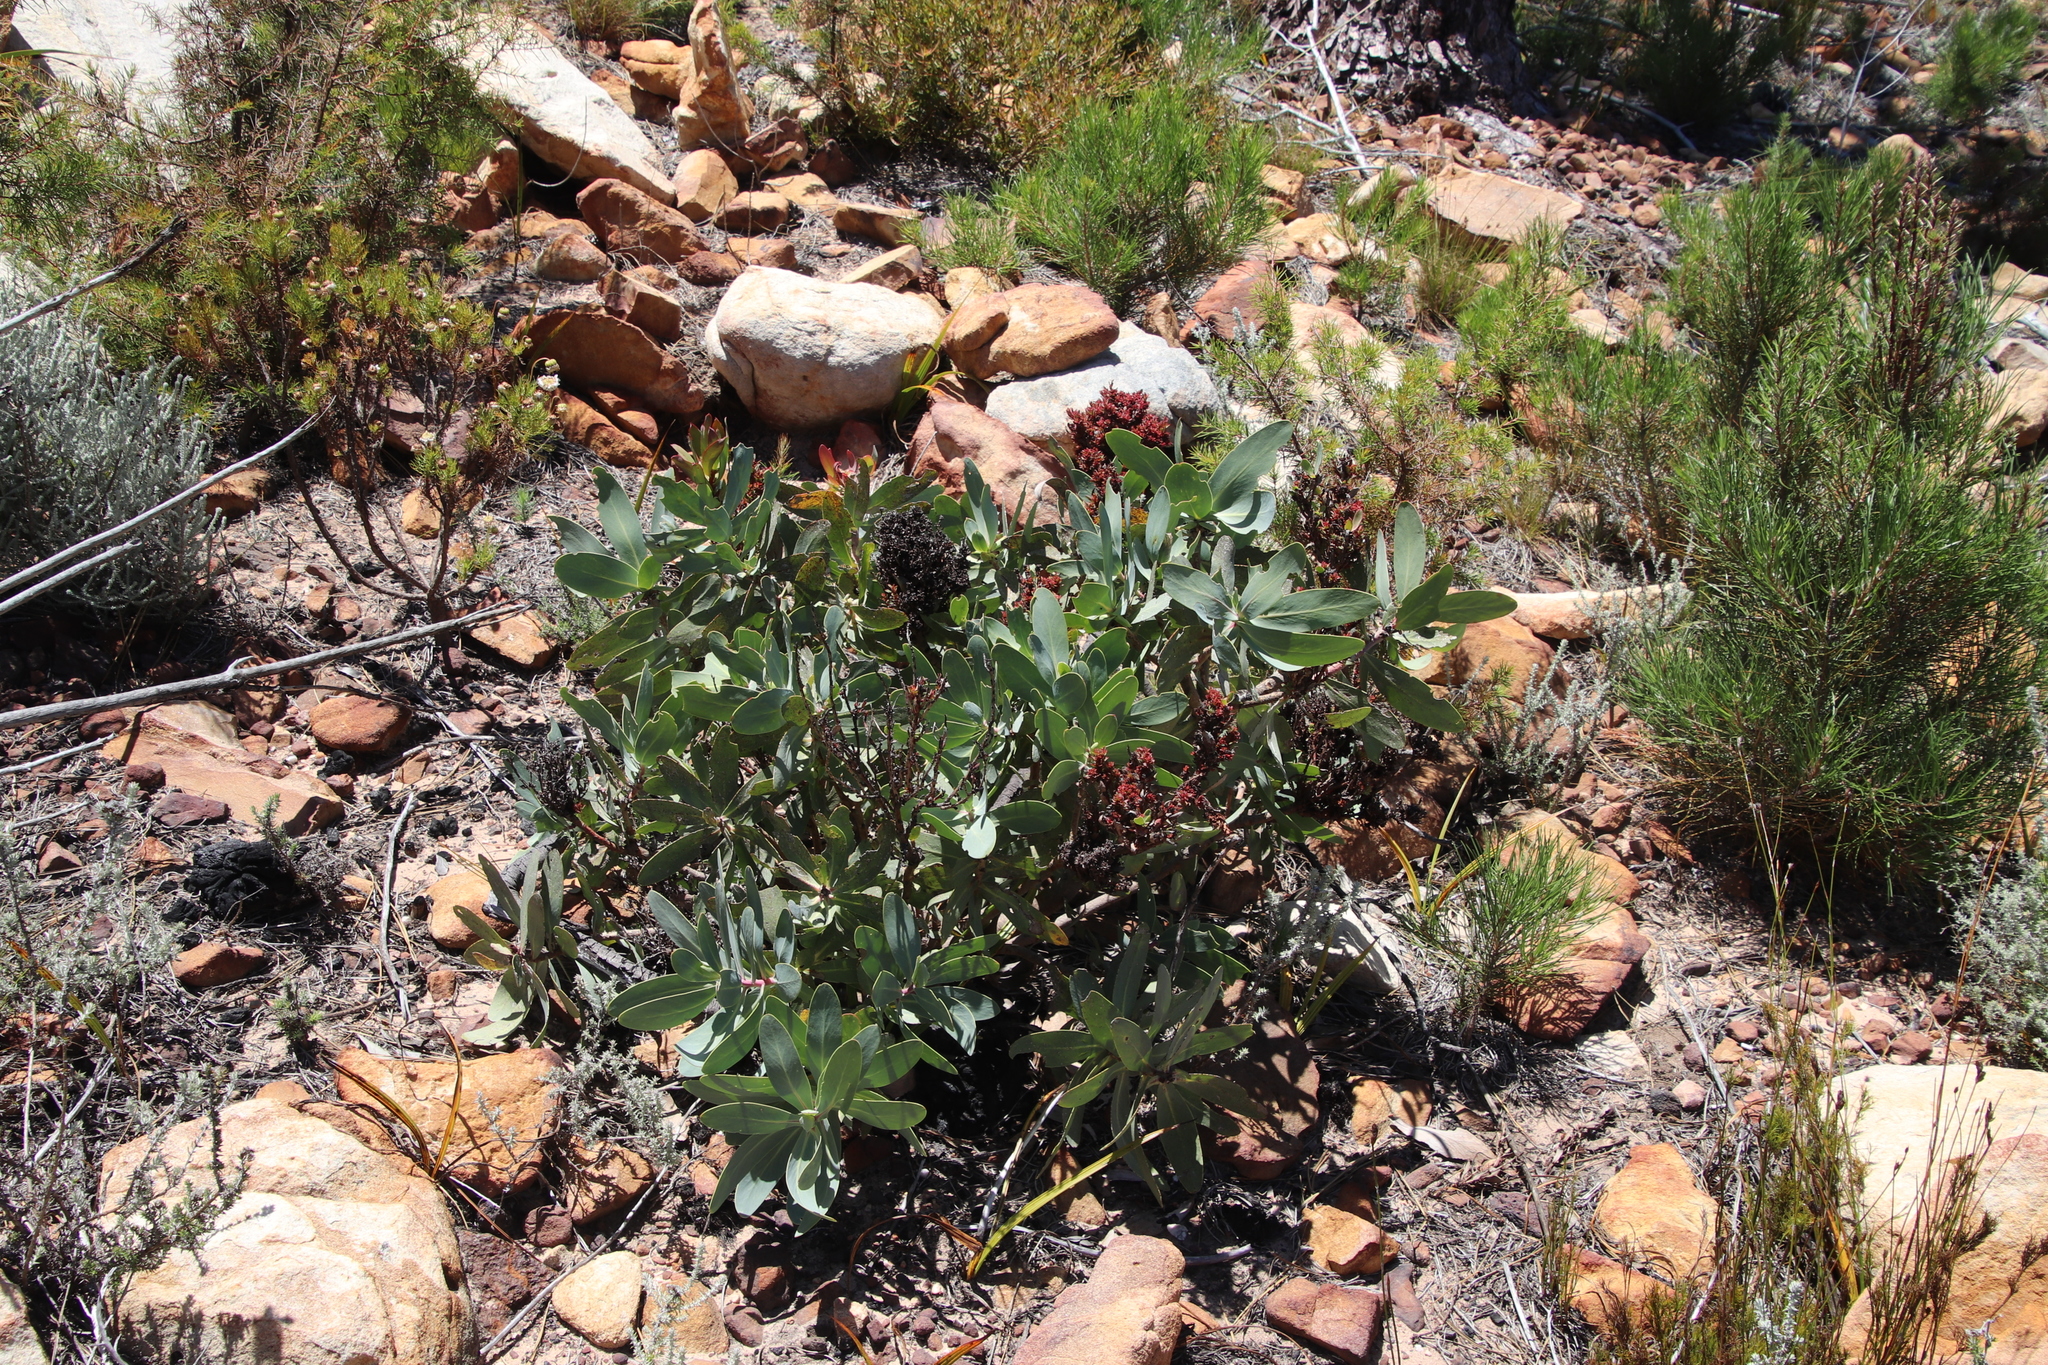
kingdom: Bacteria
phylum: Firmicutes
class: Bacilli
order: Acholeplasmatales
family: Acholeplasmataceae
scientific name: Acholeplasmataceae
